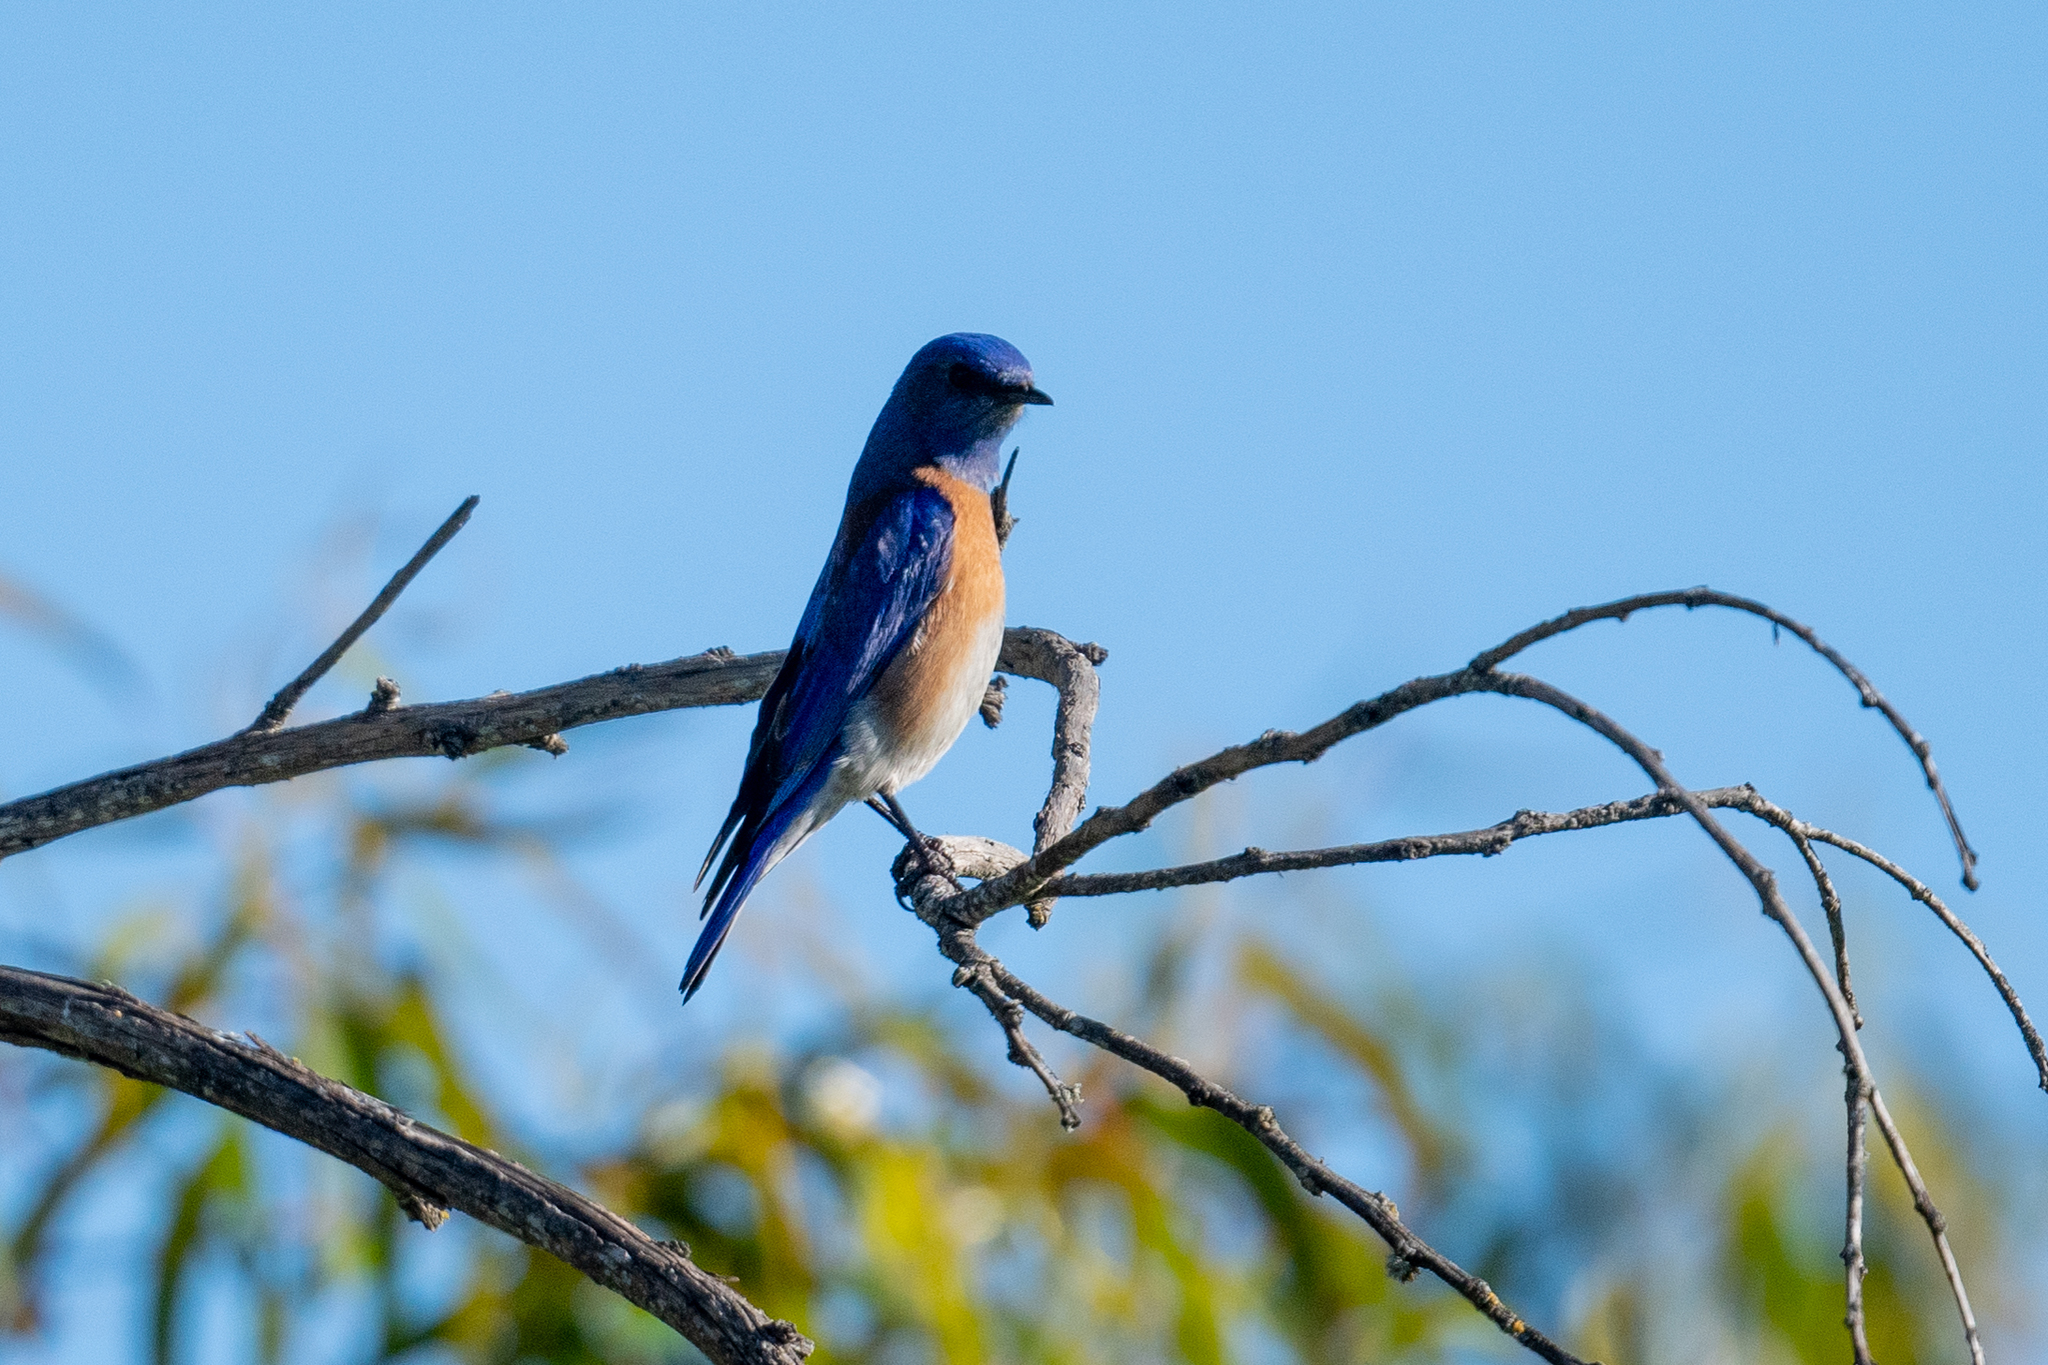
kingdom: Animalia
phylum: Chordata
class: Aves
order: Passeriformes
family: Turdidae
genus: Sialia
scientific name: Sialia mexicana
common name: Western bluebird
